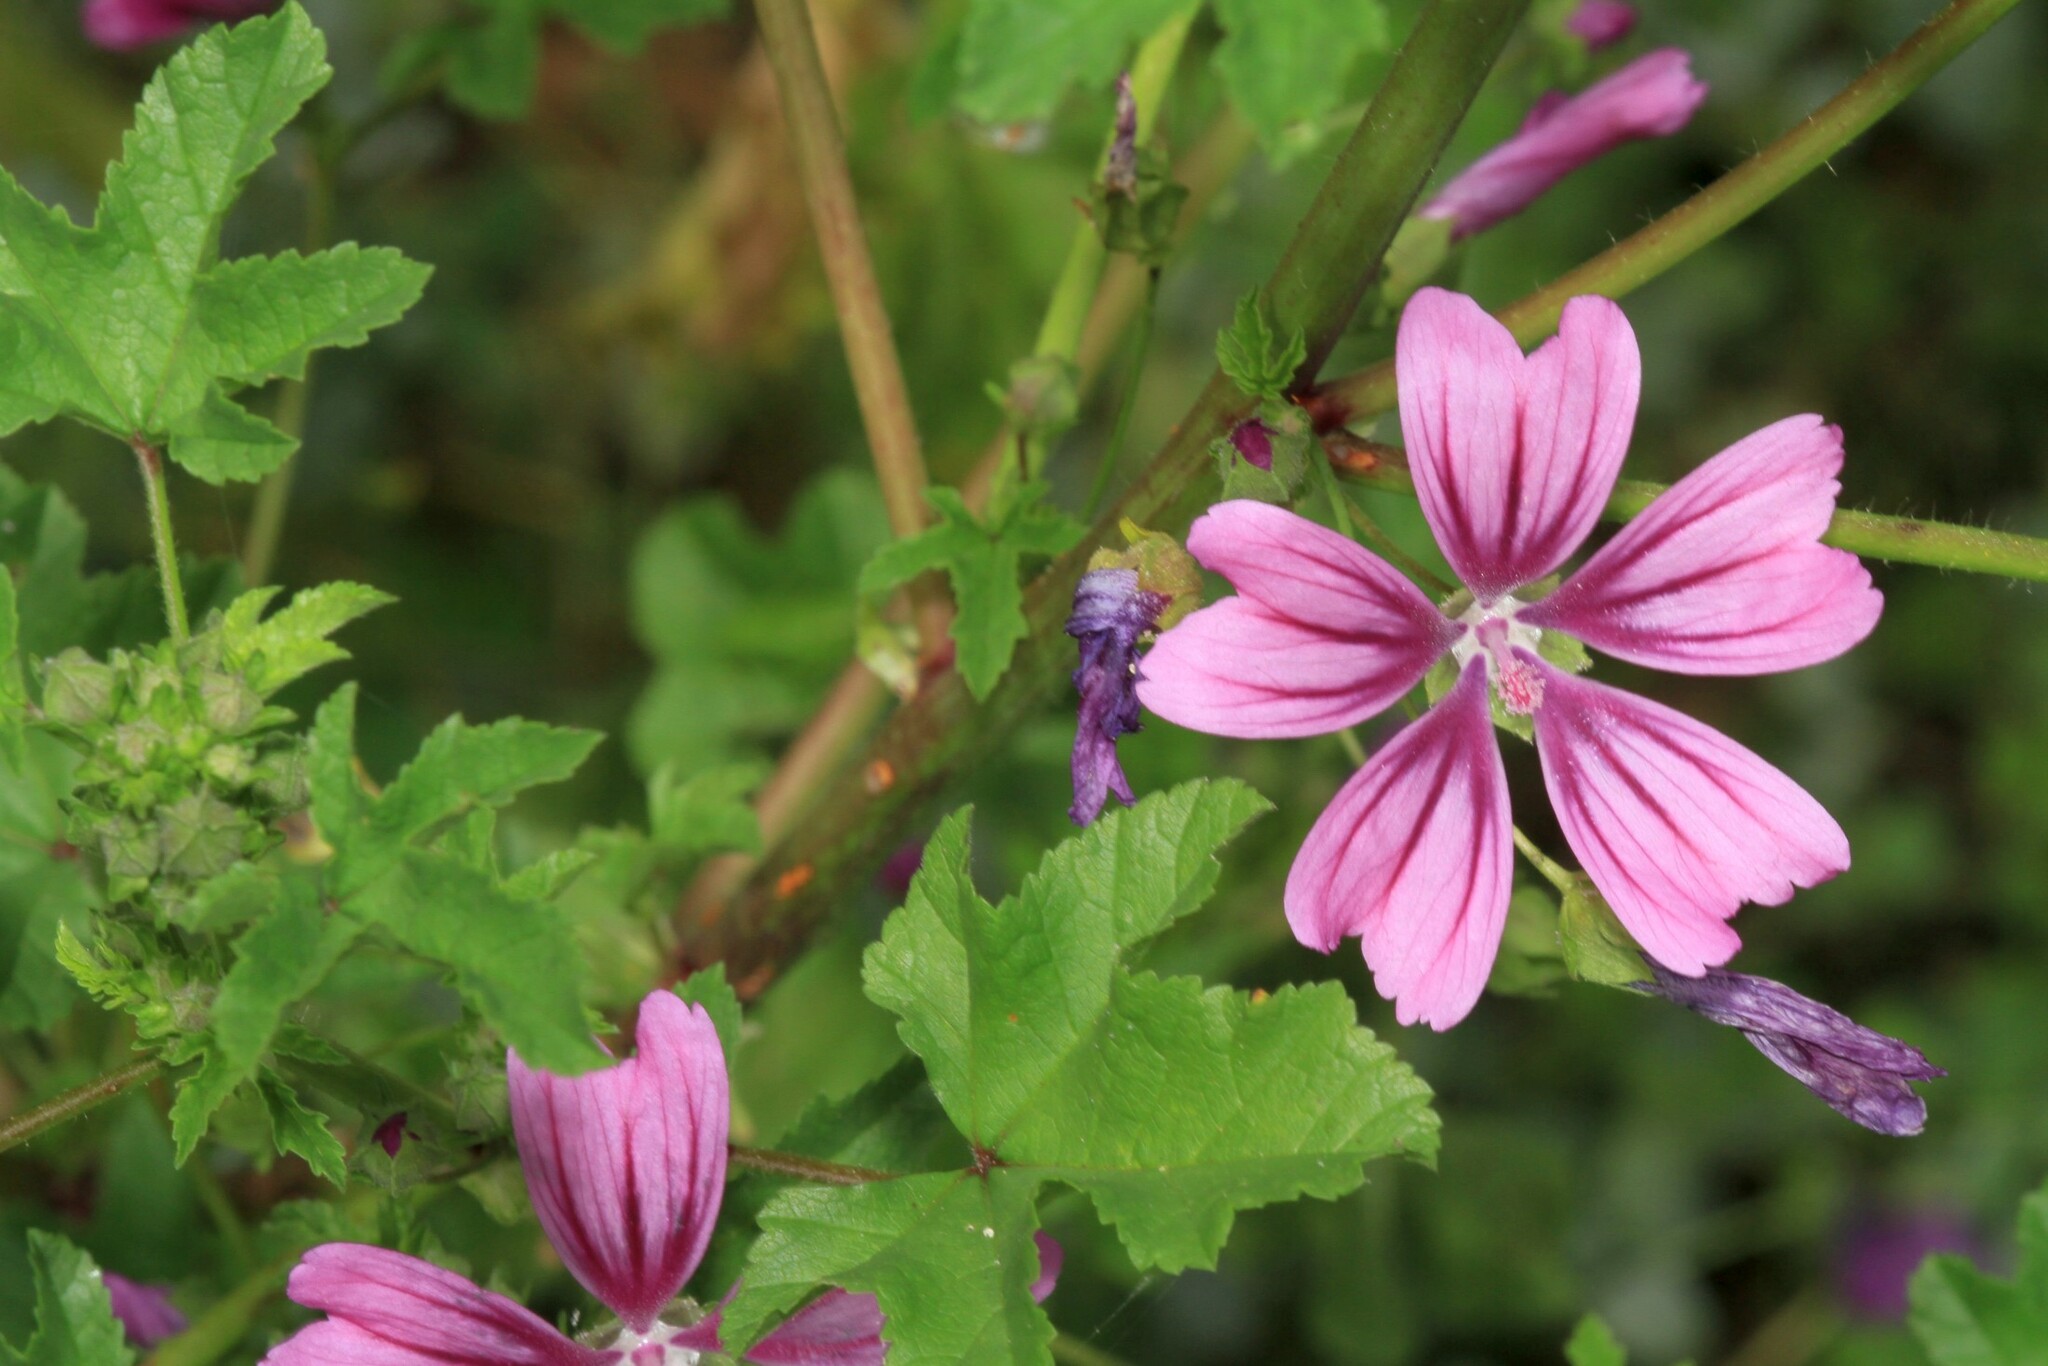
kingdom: Plantae
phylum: Tracheophyta
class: Magnoliopsida
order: Malvales
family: Malvaceae
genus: Malva
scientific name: Malva sylvestris
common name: Common mallow
